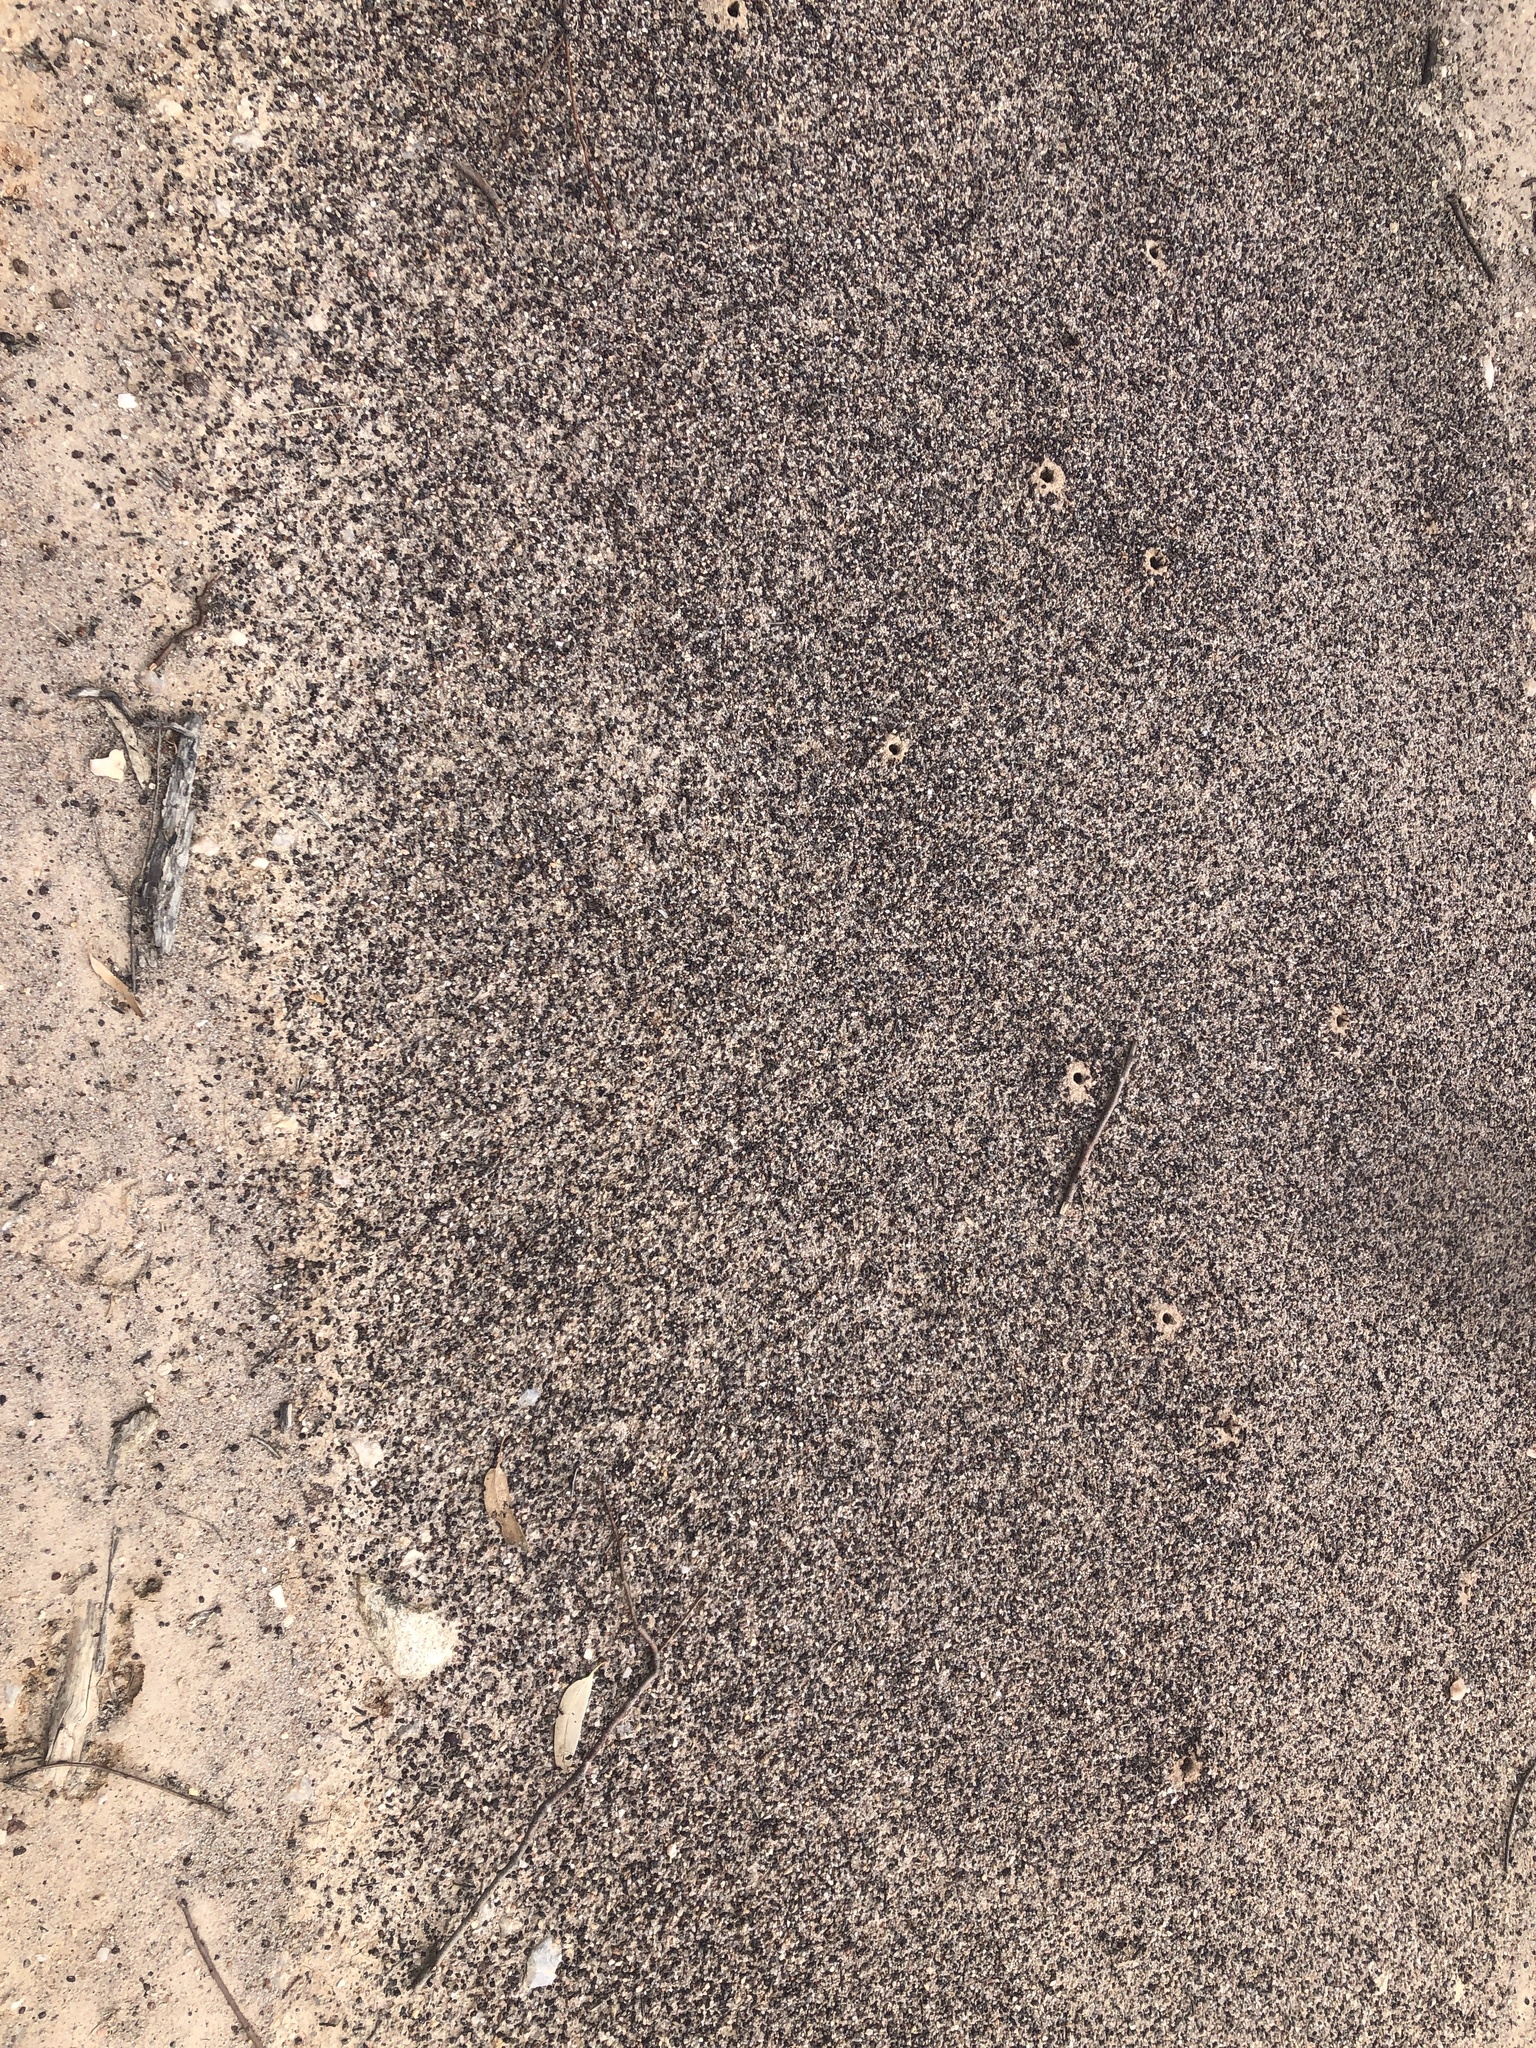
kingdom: Animalia
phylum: Arthropoda
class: Insecta
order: Hymenoptera
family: Formicidae
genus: Iridomyrmex
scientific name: Iridomyrmex purpureus
